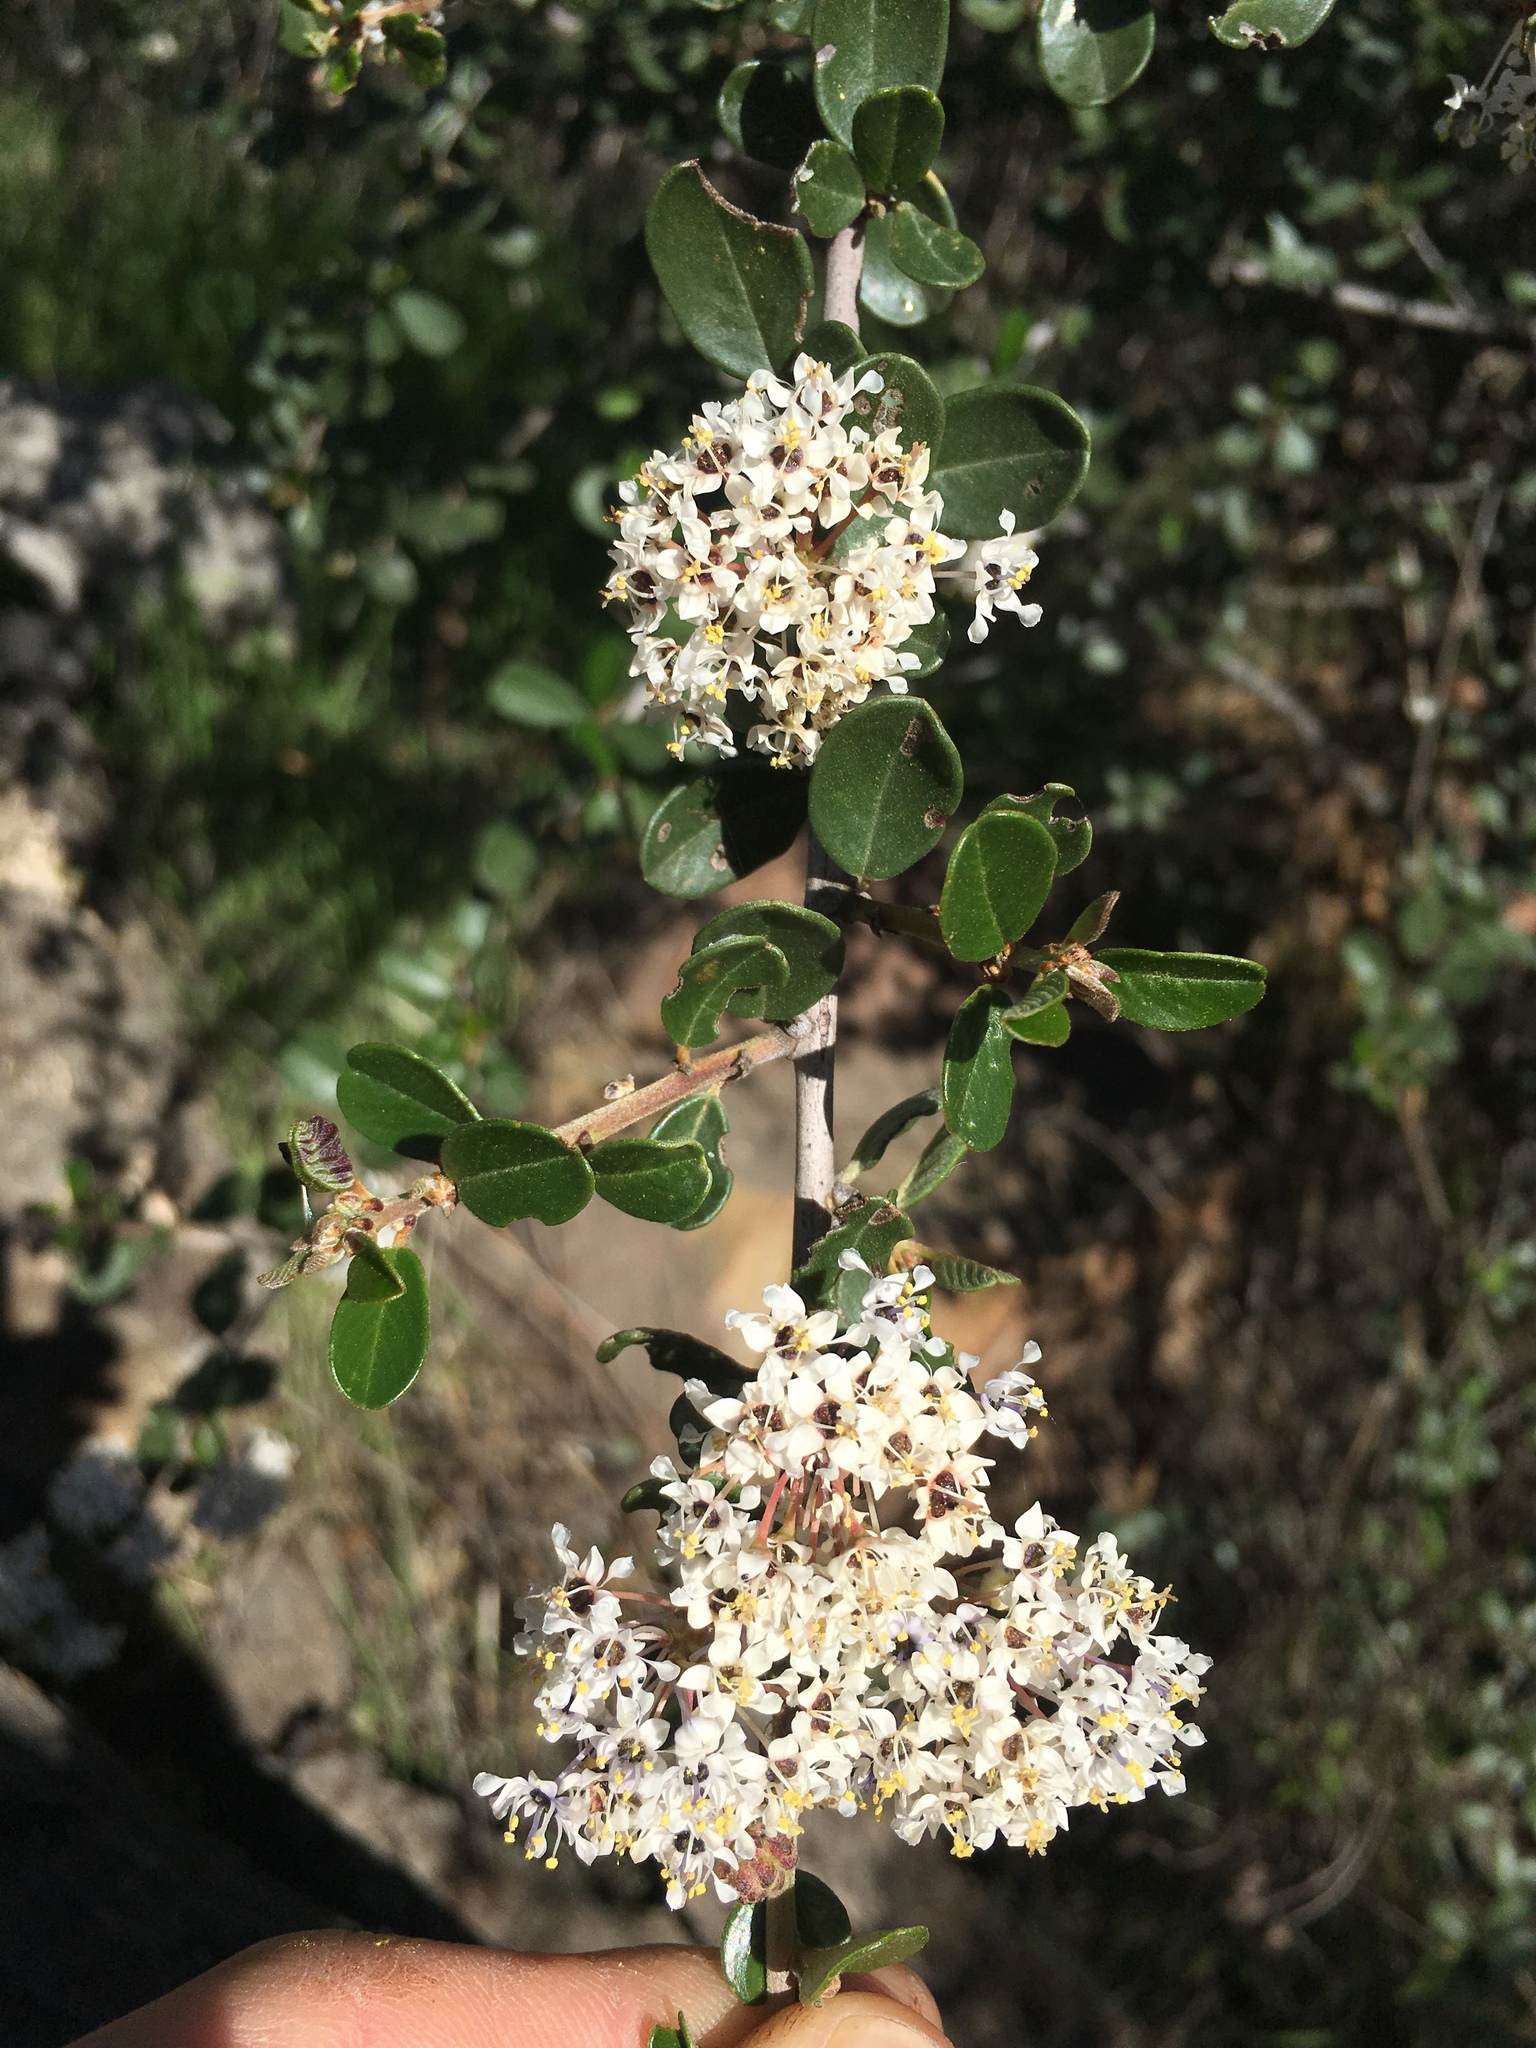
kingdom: Plantae
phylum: Tracheophyta
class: Magnoliopsida
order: Rosales
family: Rhamnaceae
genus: Ceanothus
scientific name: Ceanothus megacarpus
